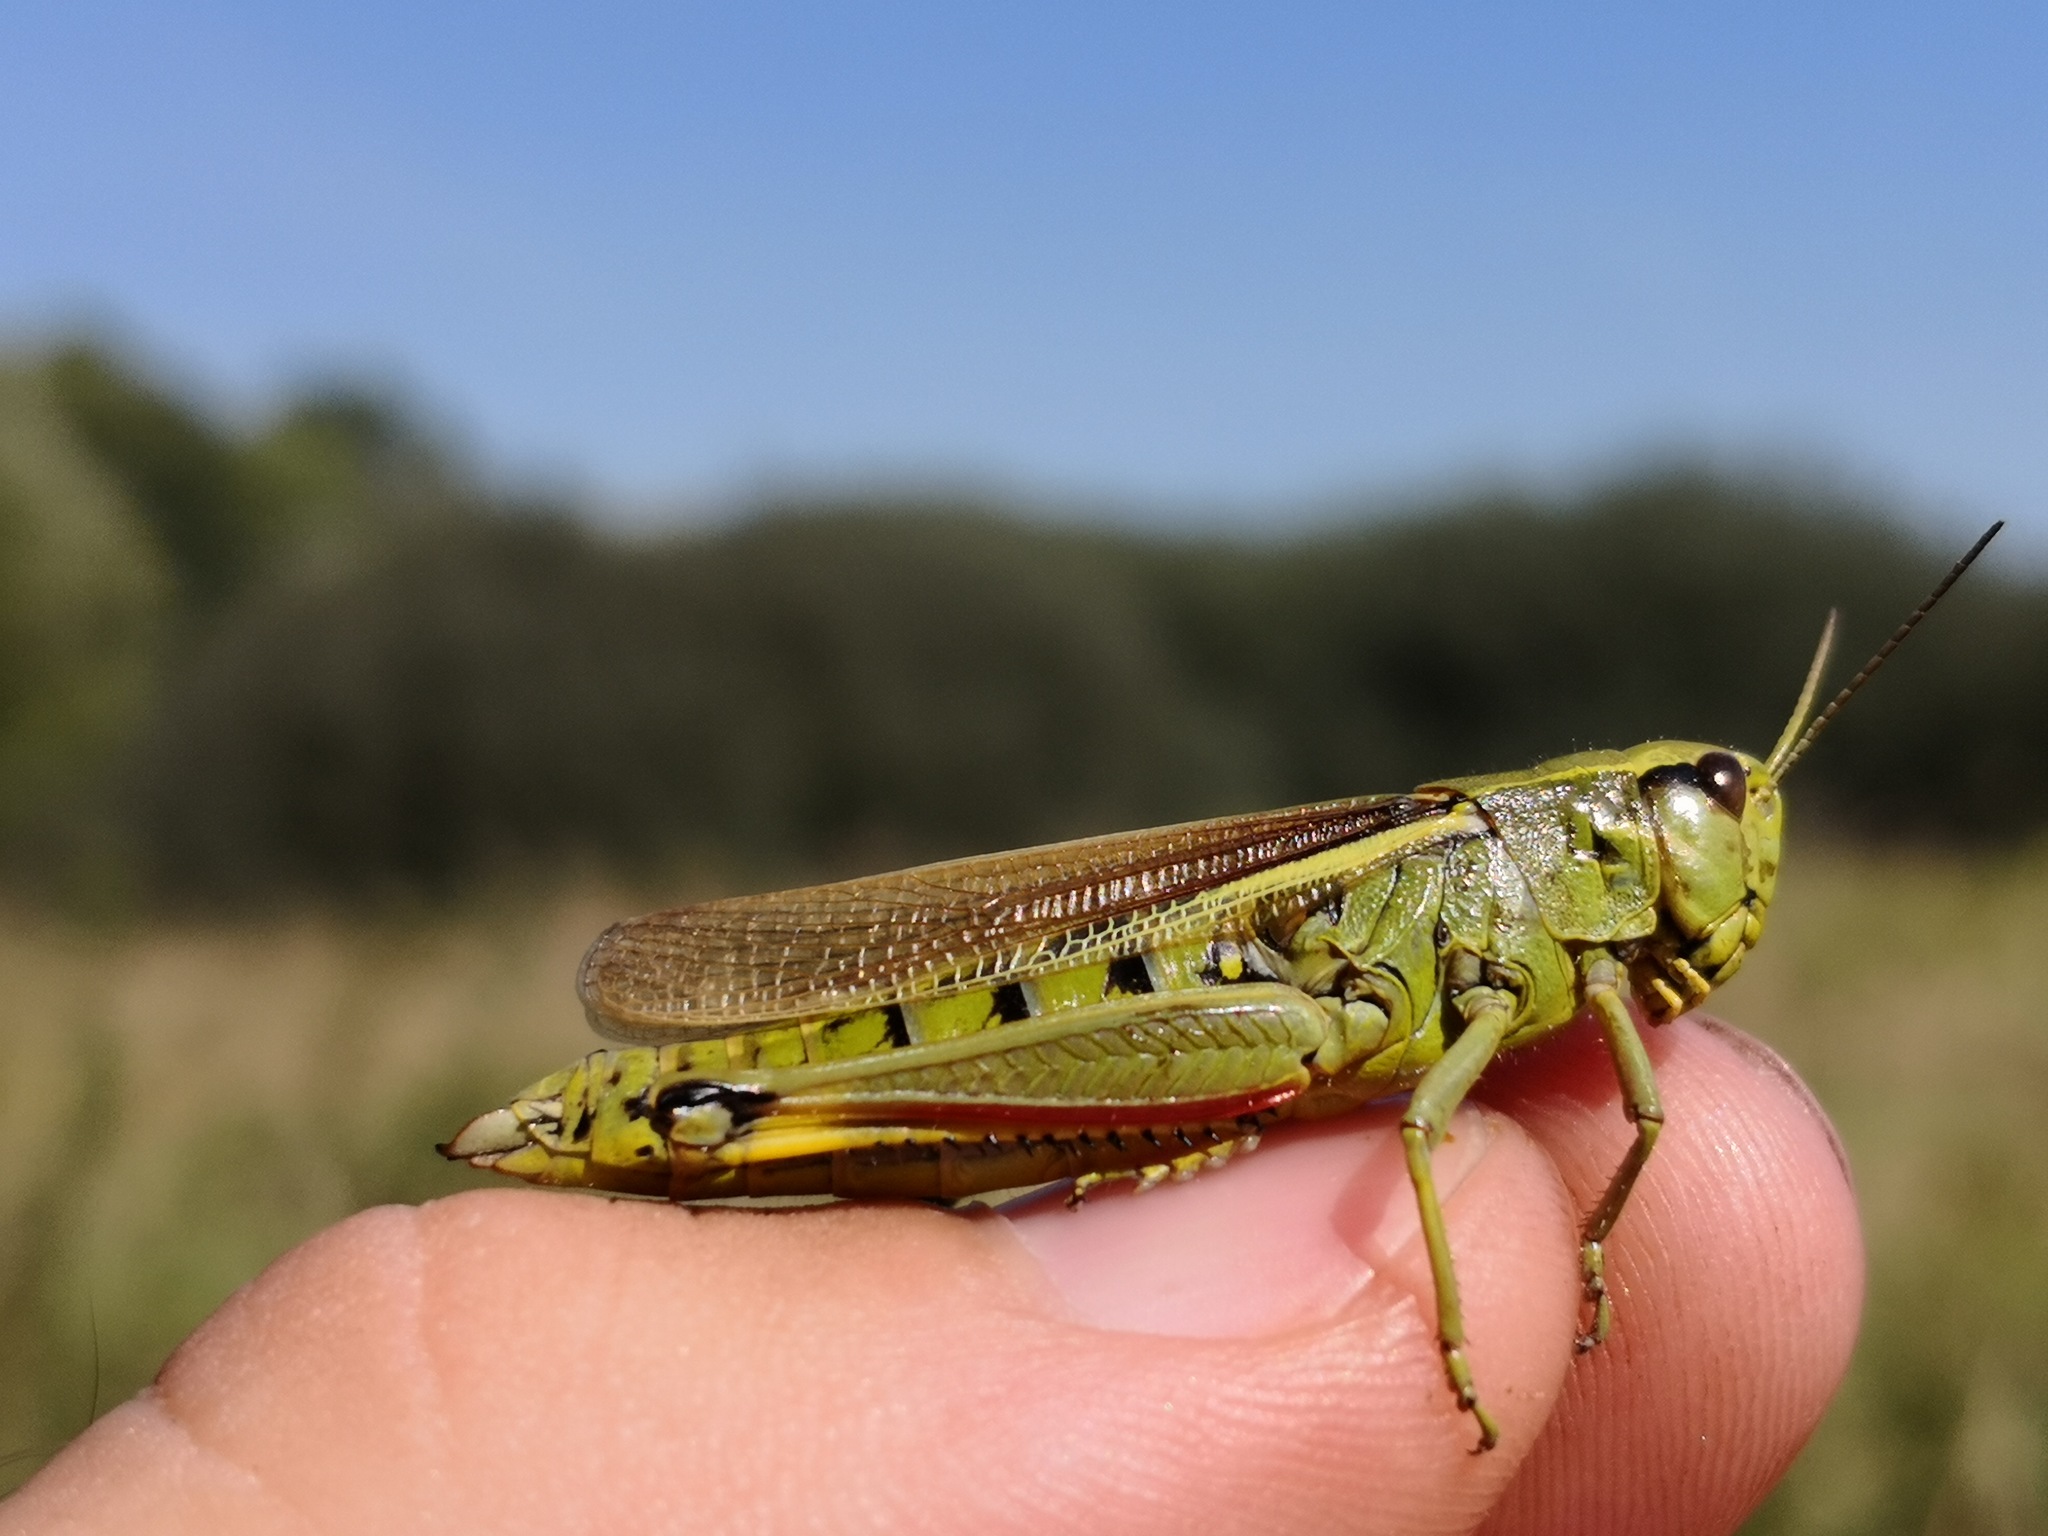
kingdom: Animalia
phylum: Arthropoda
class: Insecta
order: Orthoptera
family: Acrididae
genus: Stethophyma
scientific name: Stethophyma grossum
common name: Large marsh grasshopper
